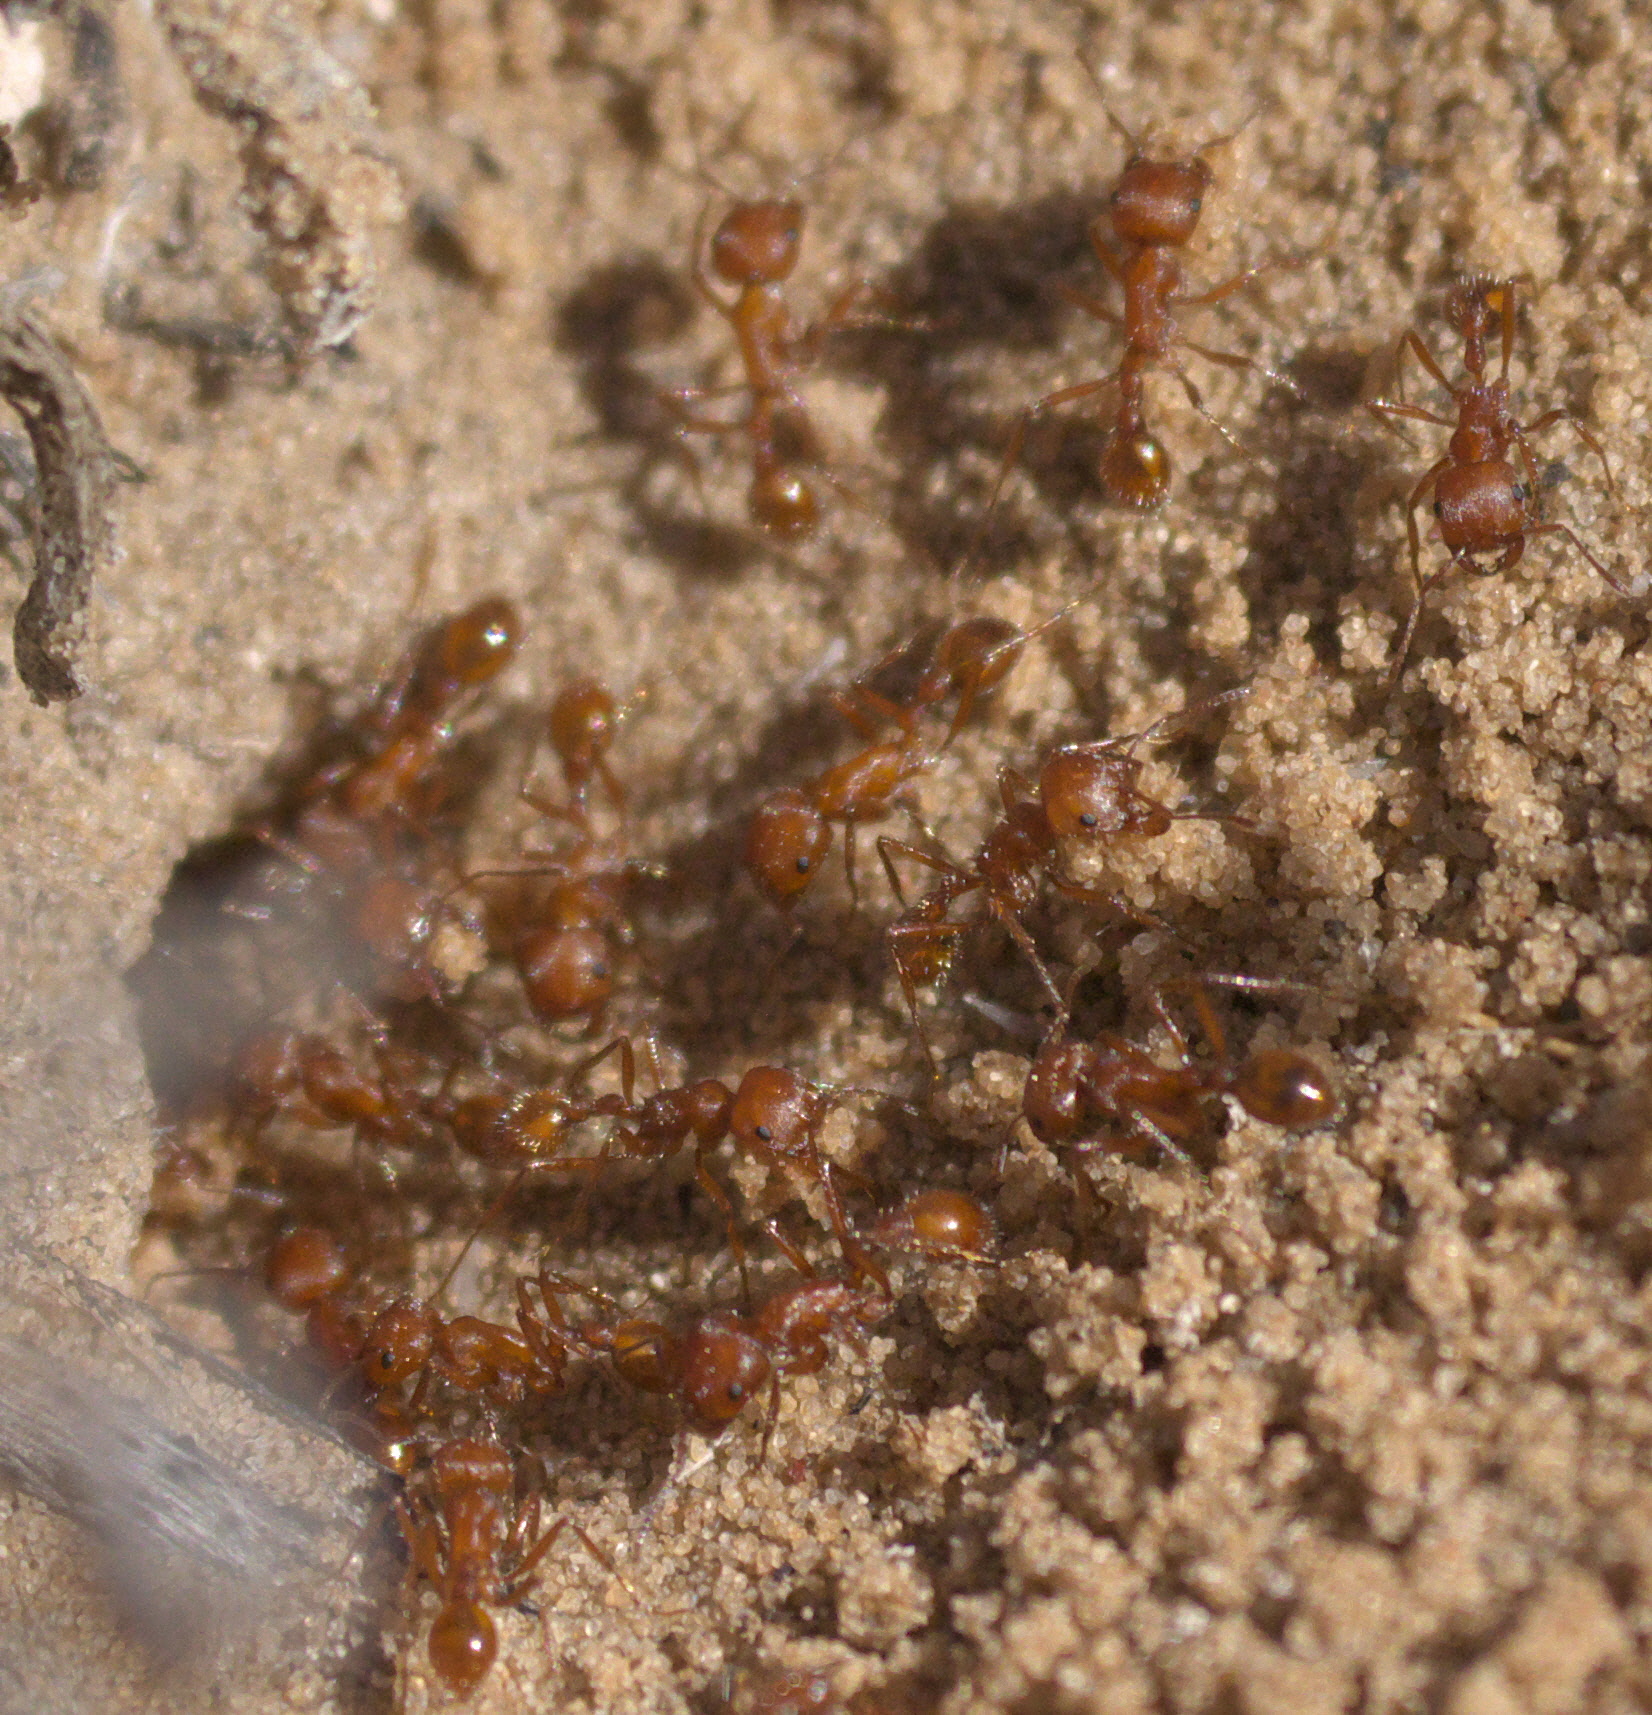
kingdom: Animalia
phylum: Arthropoda
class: Insecta
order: Hymenoptera
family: Formicidae
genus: Pogonomyrmex
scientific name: Pogonomyrmex comanche
